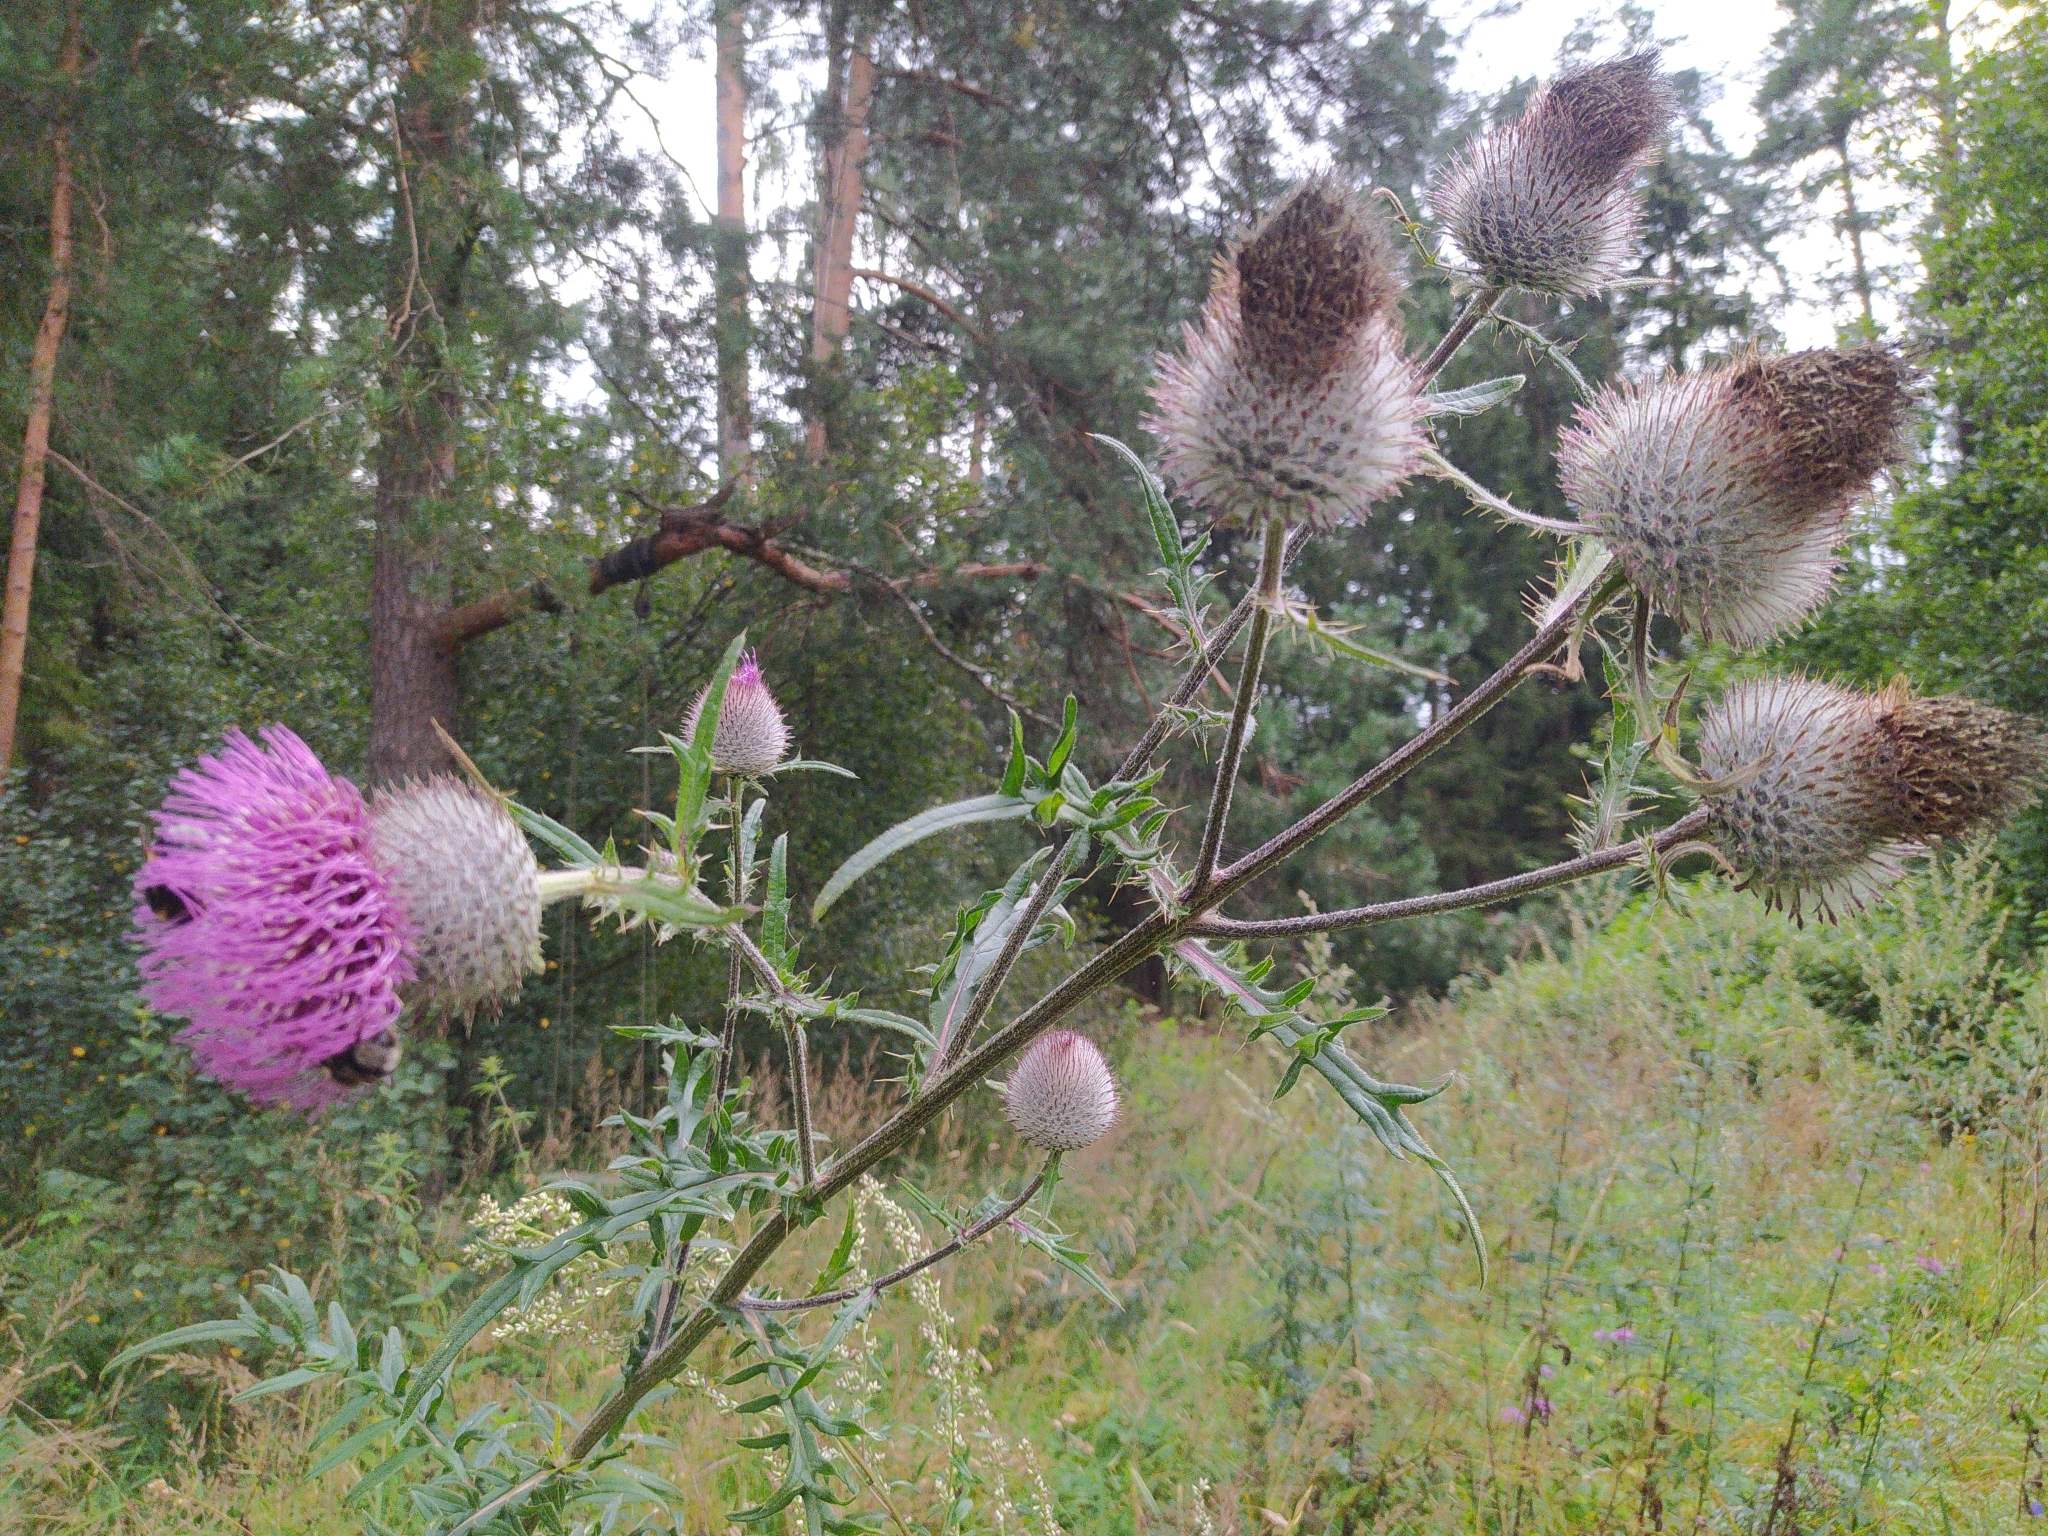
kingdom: Plantae
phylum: Tracheophyta
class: Magnoliopsida
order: Asterales
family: Asteraceae
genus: Lophiolepis
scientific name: Lophiolepis decussata
